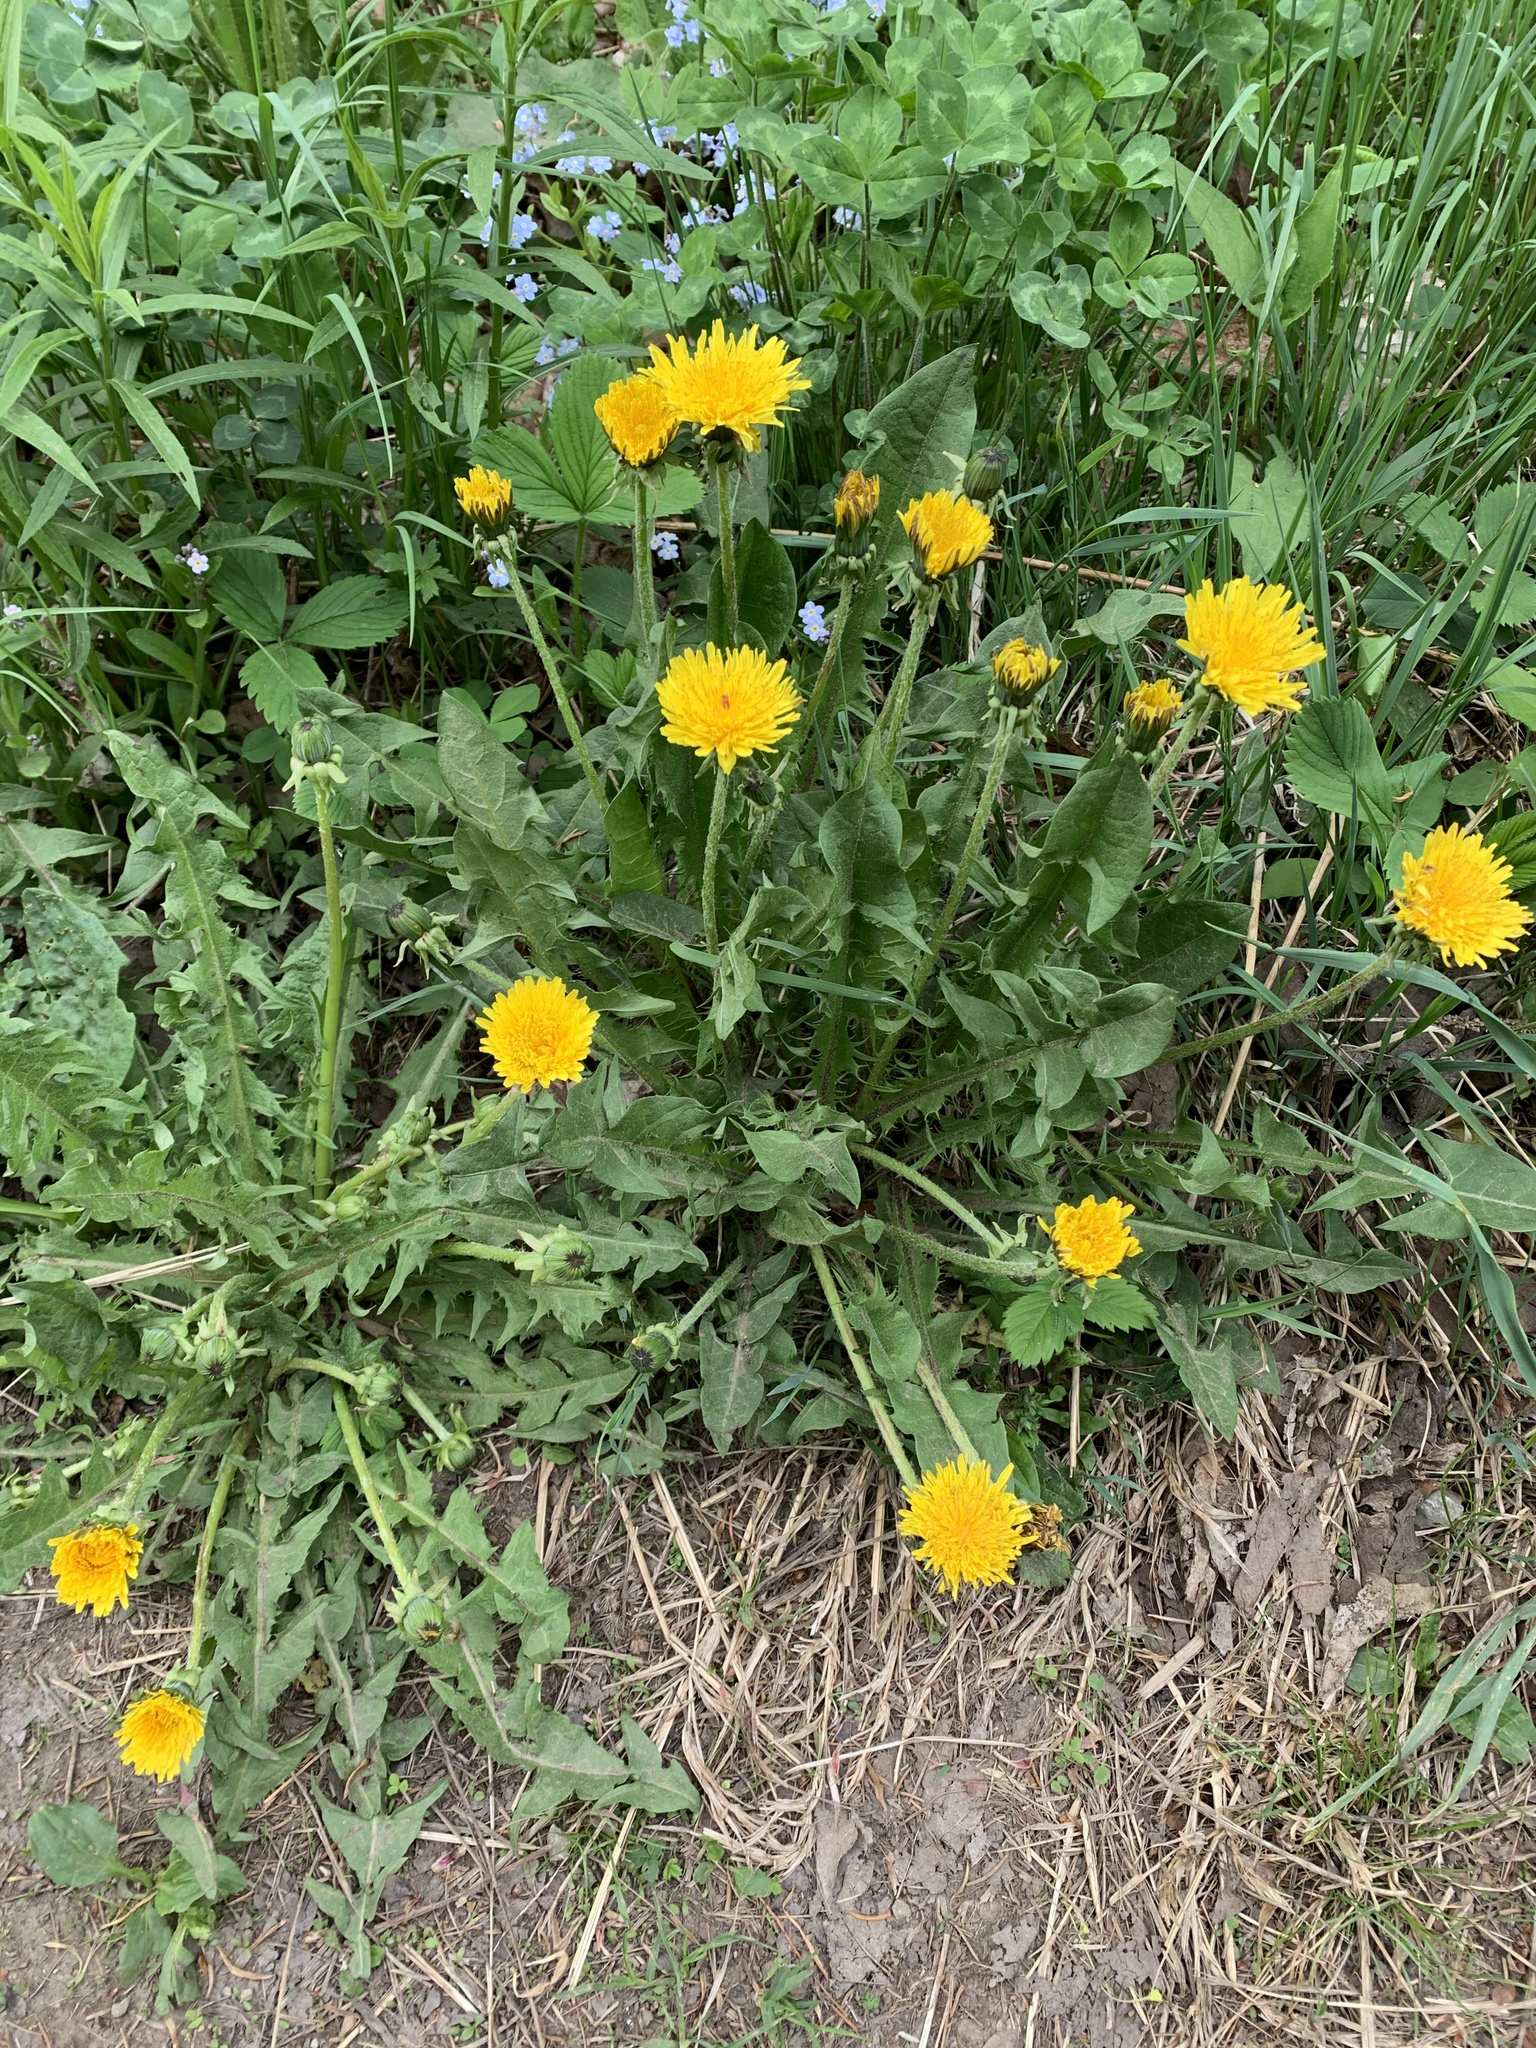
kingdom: Plantae
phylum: Tracheophyta
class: Magnoliopsida
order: Asterales
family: Asteraceae
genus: Taraxacum
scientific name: Taraxacum officinale
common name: Common dandelion
